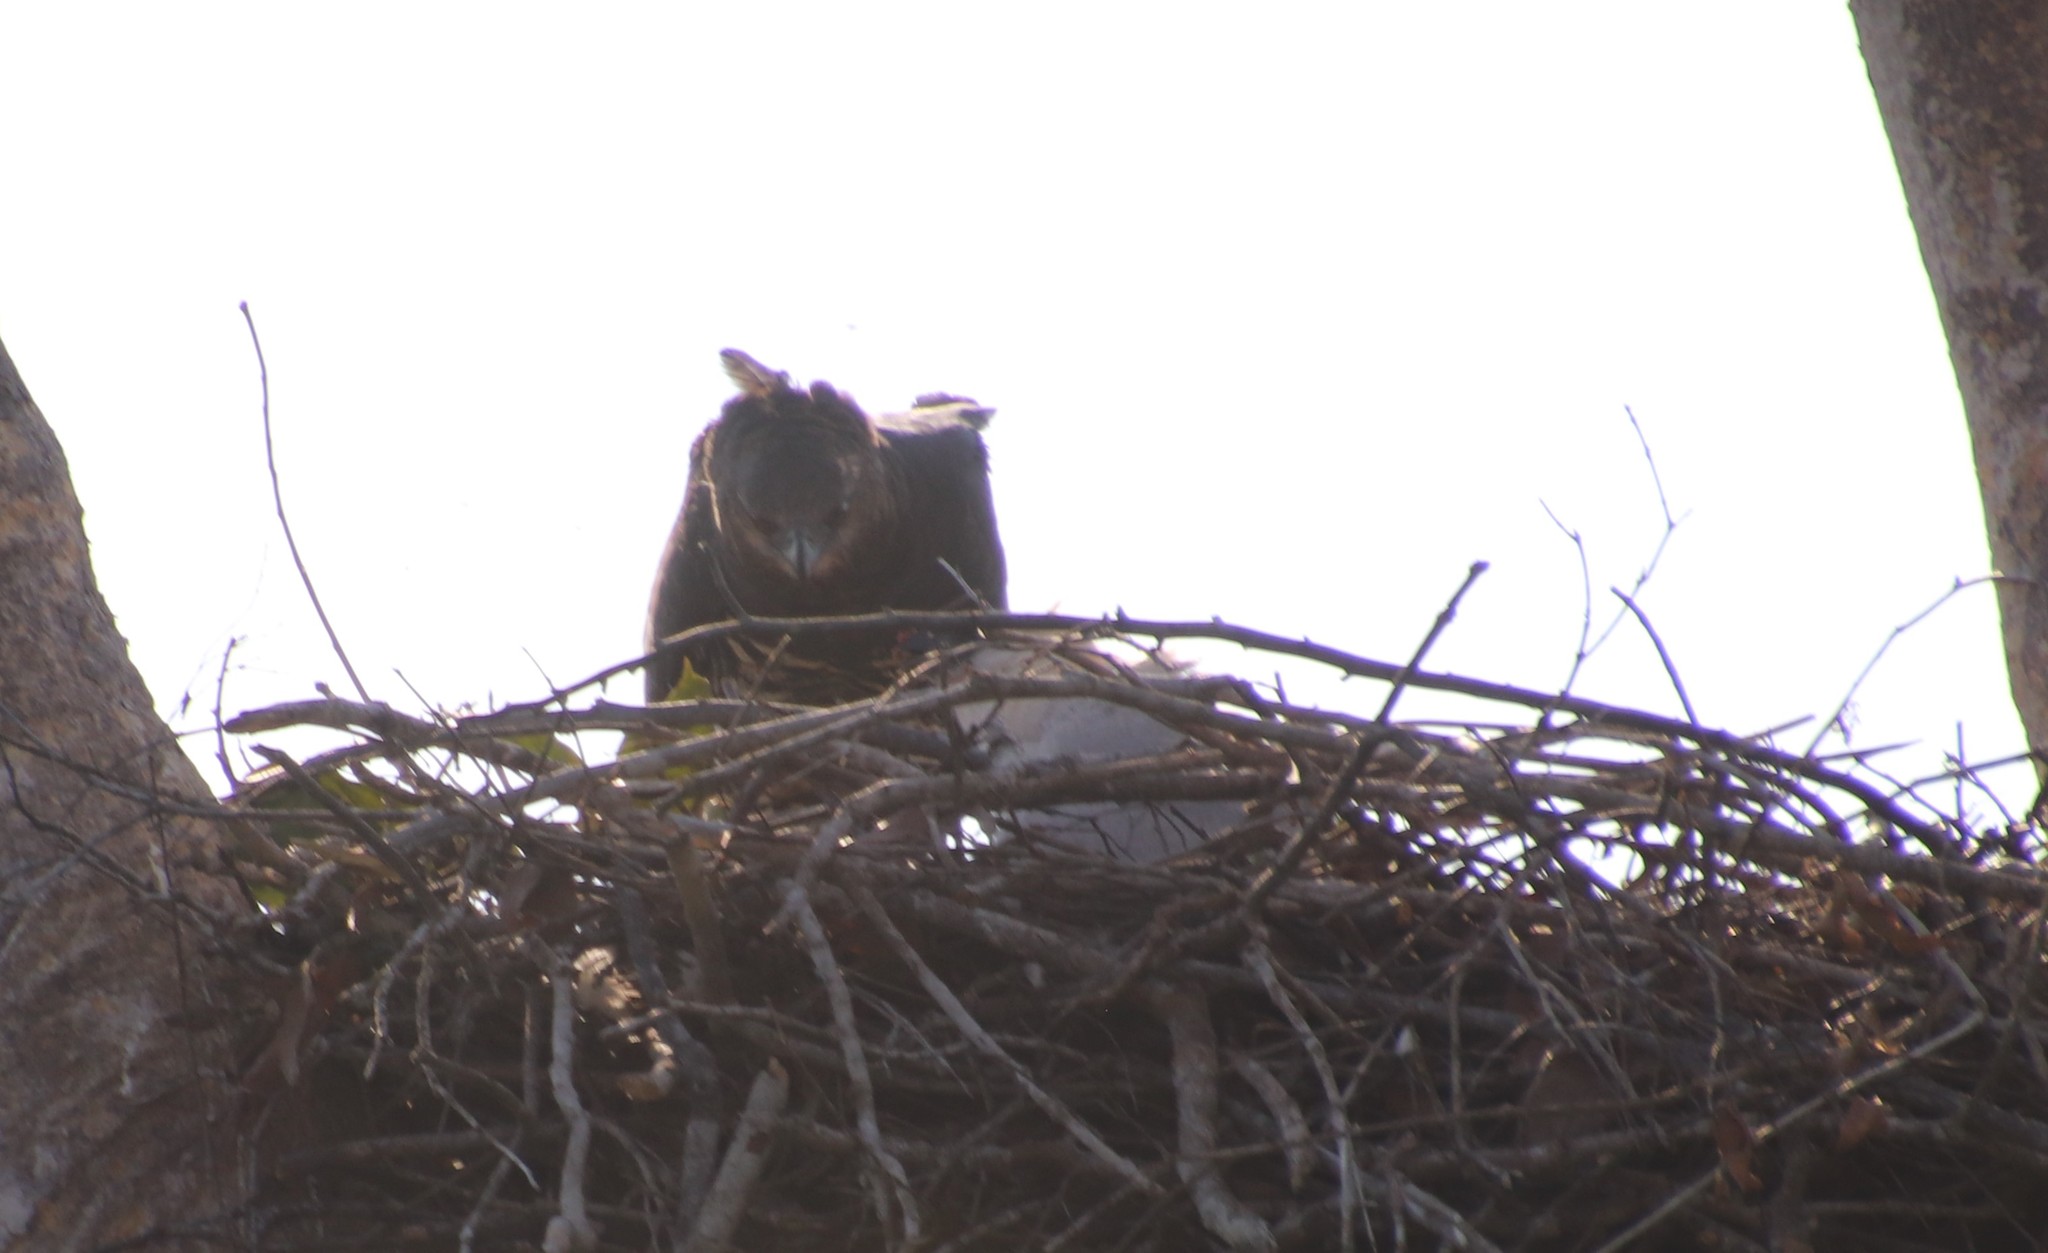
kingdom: Animalia
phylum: Chordata
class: Aves
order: Accipitriformes
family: Accipitridae
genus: Morphnus
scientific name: Morphnus guianensis
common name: Crested eagle
